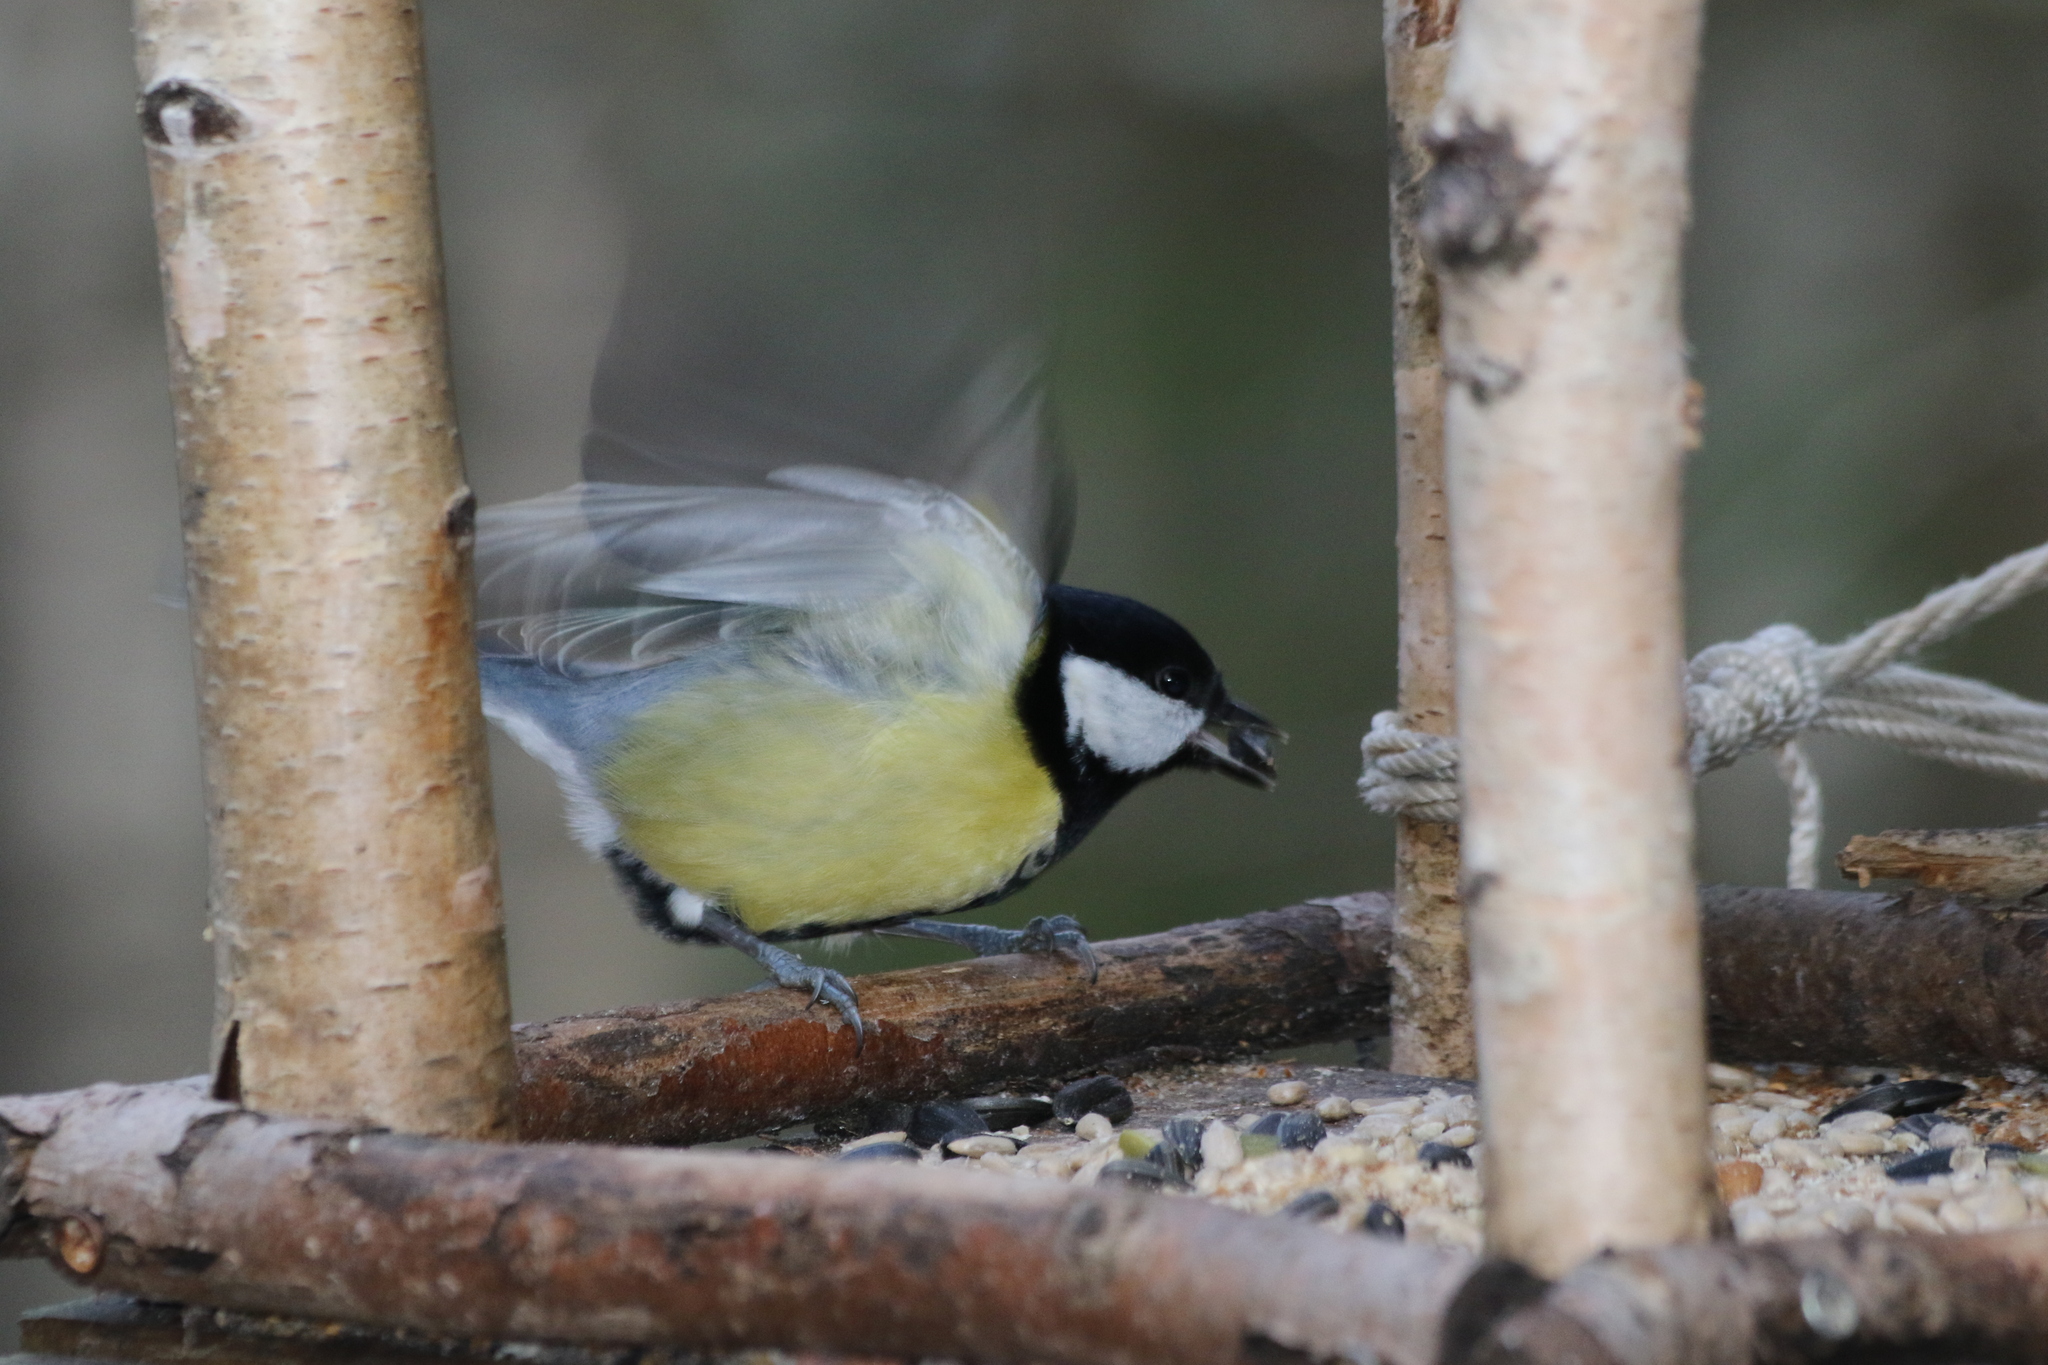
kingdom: Animalia
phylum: Chordata
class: Aves
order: Passeriformes
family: Paridae
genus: Parus
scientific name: Parus major
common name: Great tit
